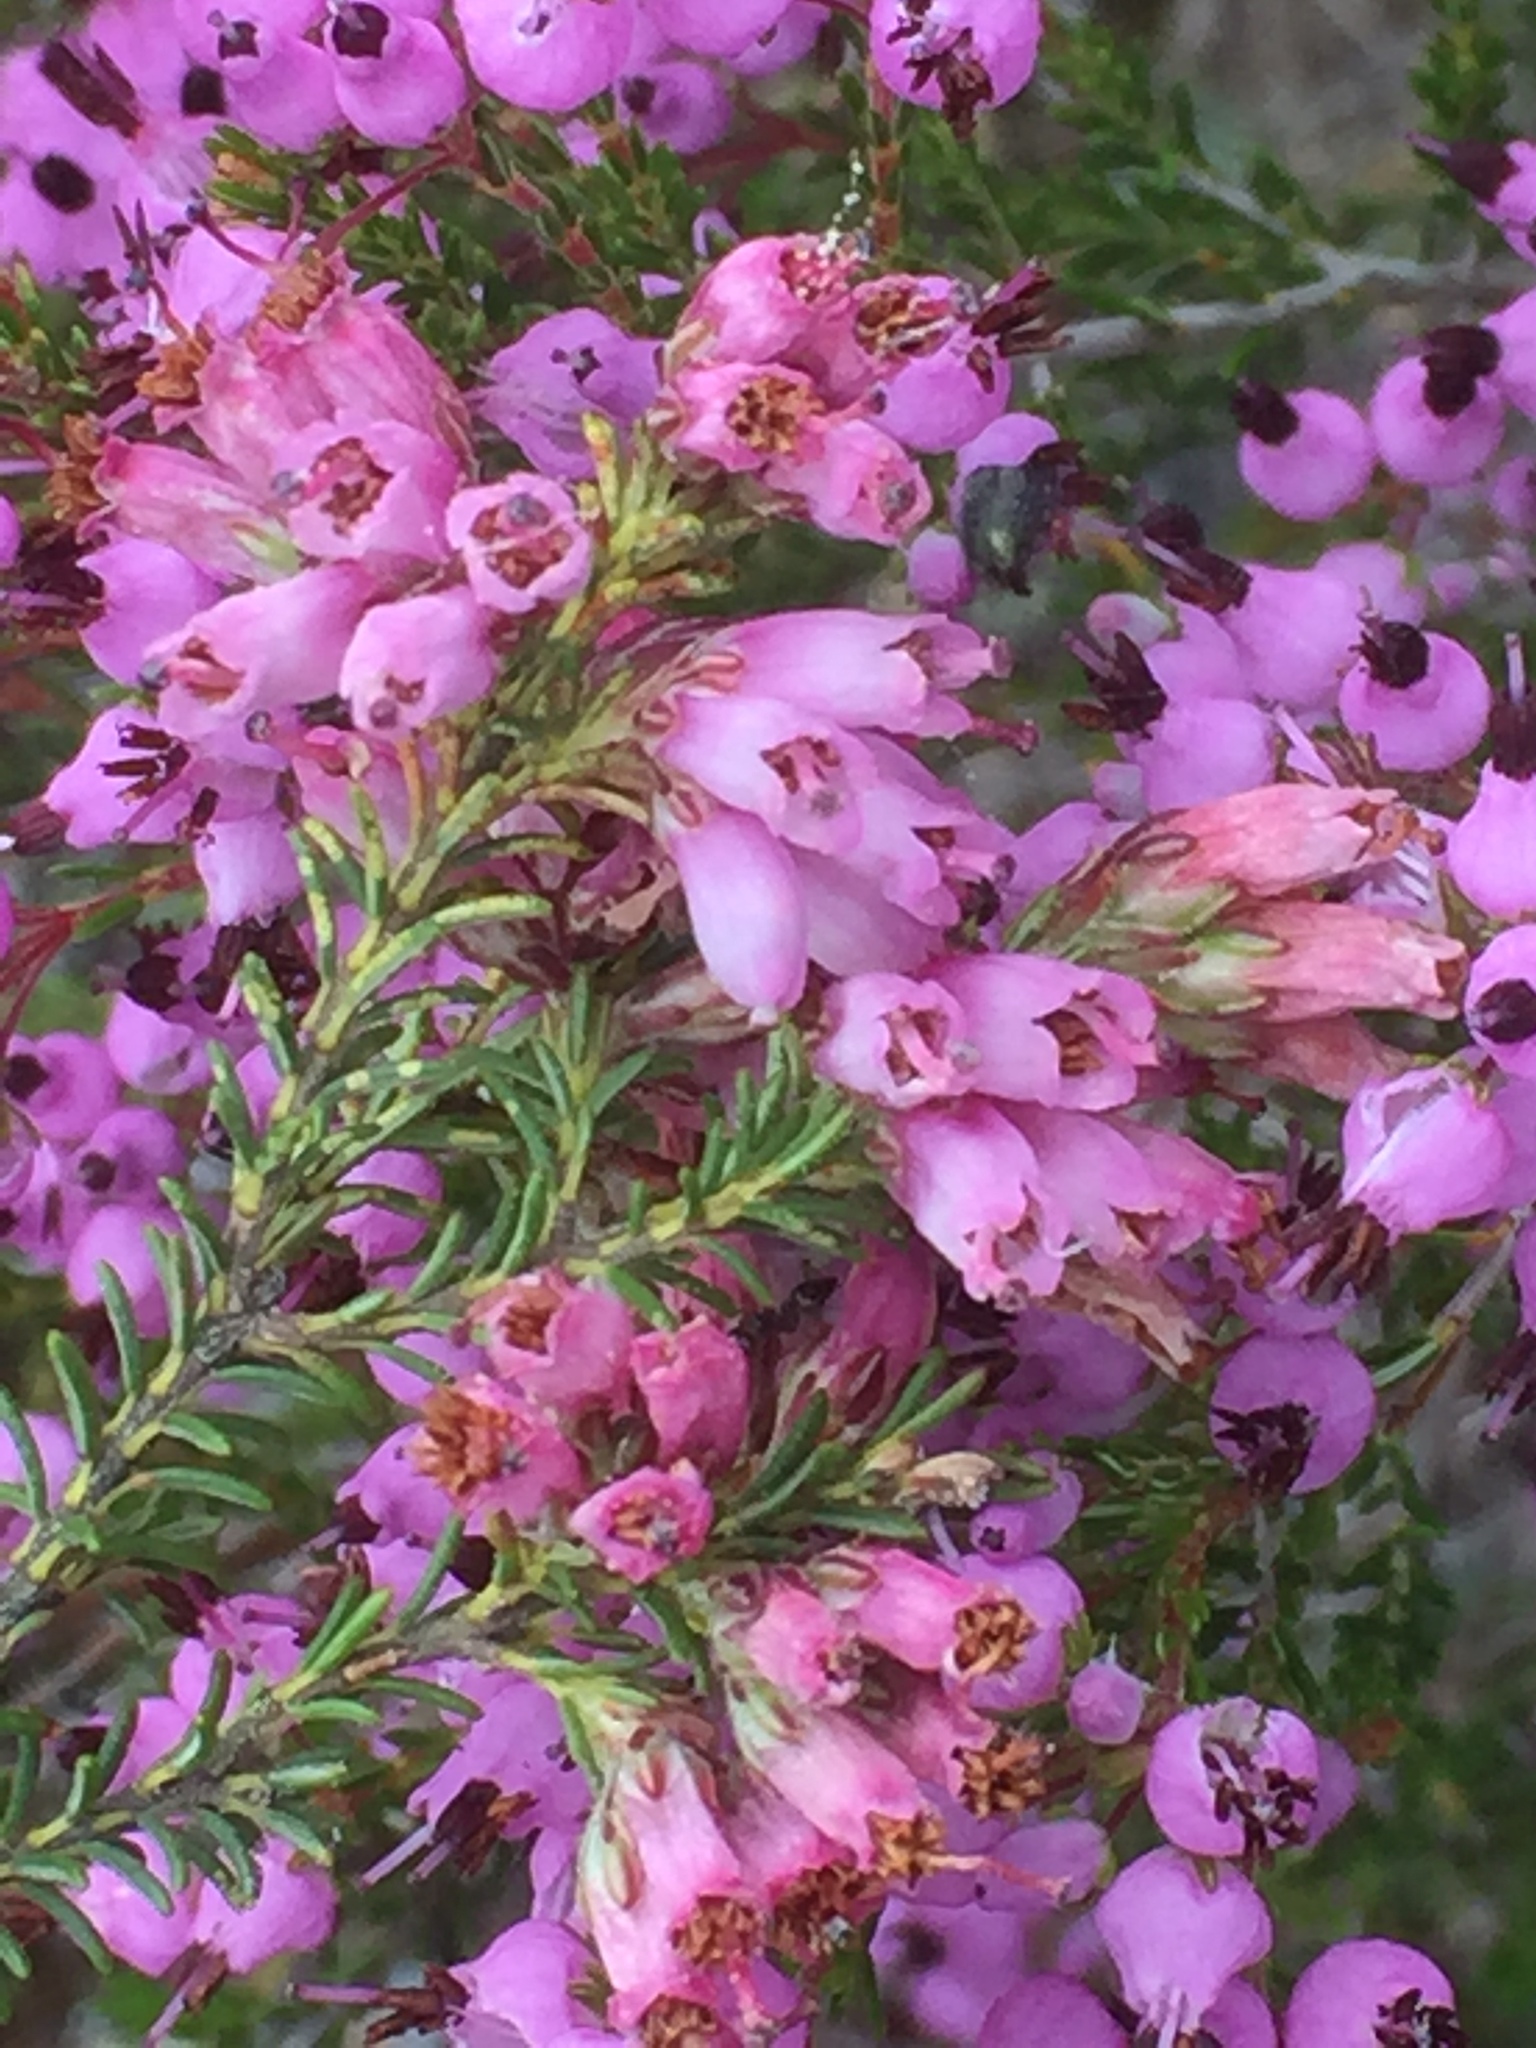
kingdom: Plantae
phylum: Tracheophyta
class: Magnoliopsida
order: Ericales
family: Ericaceae
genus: Erica
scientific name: Erica australis
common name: Spanish heath
